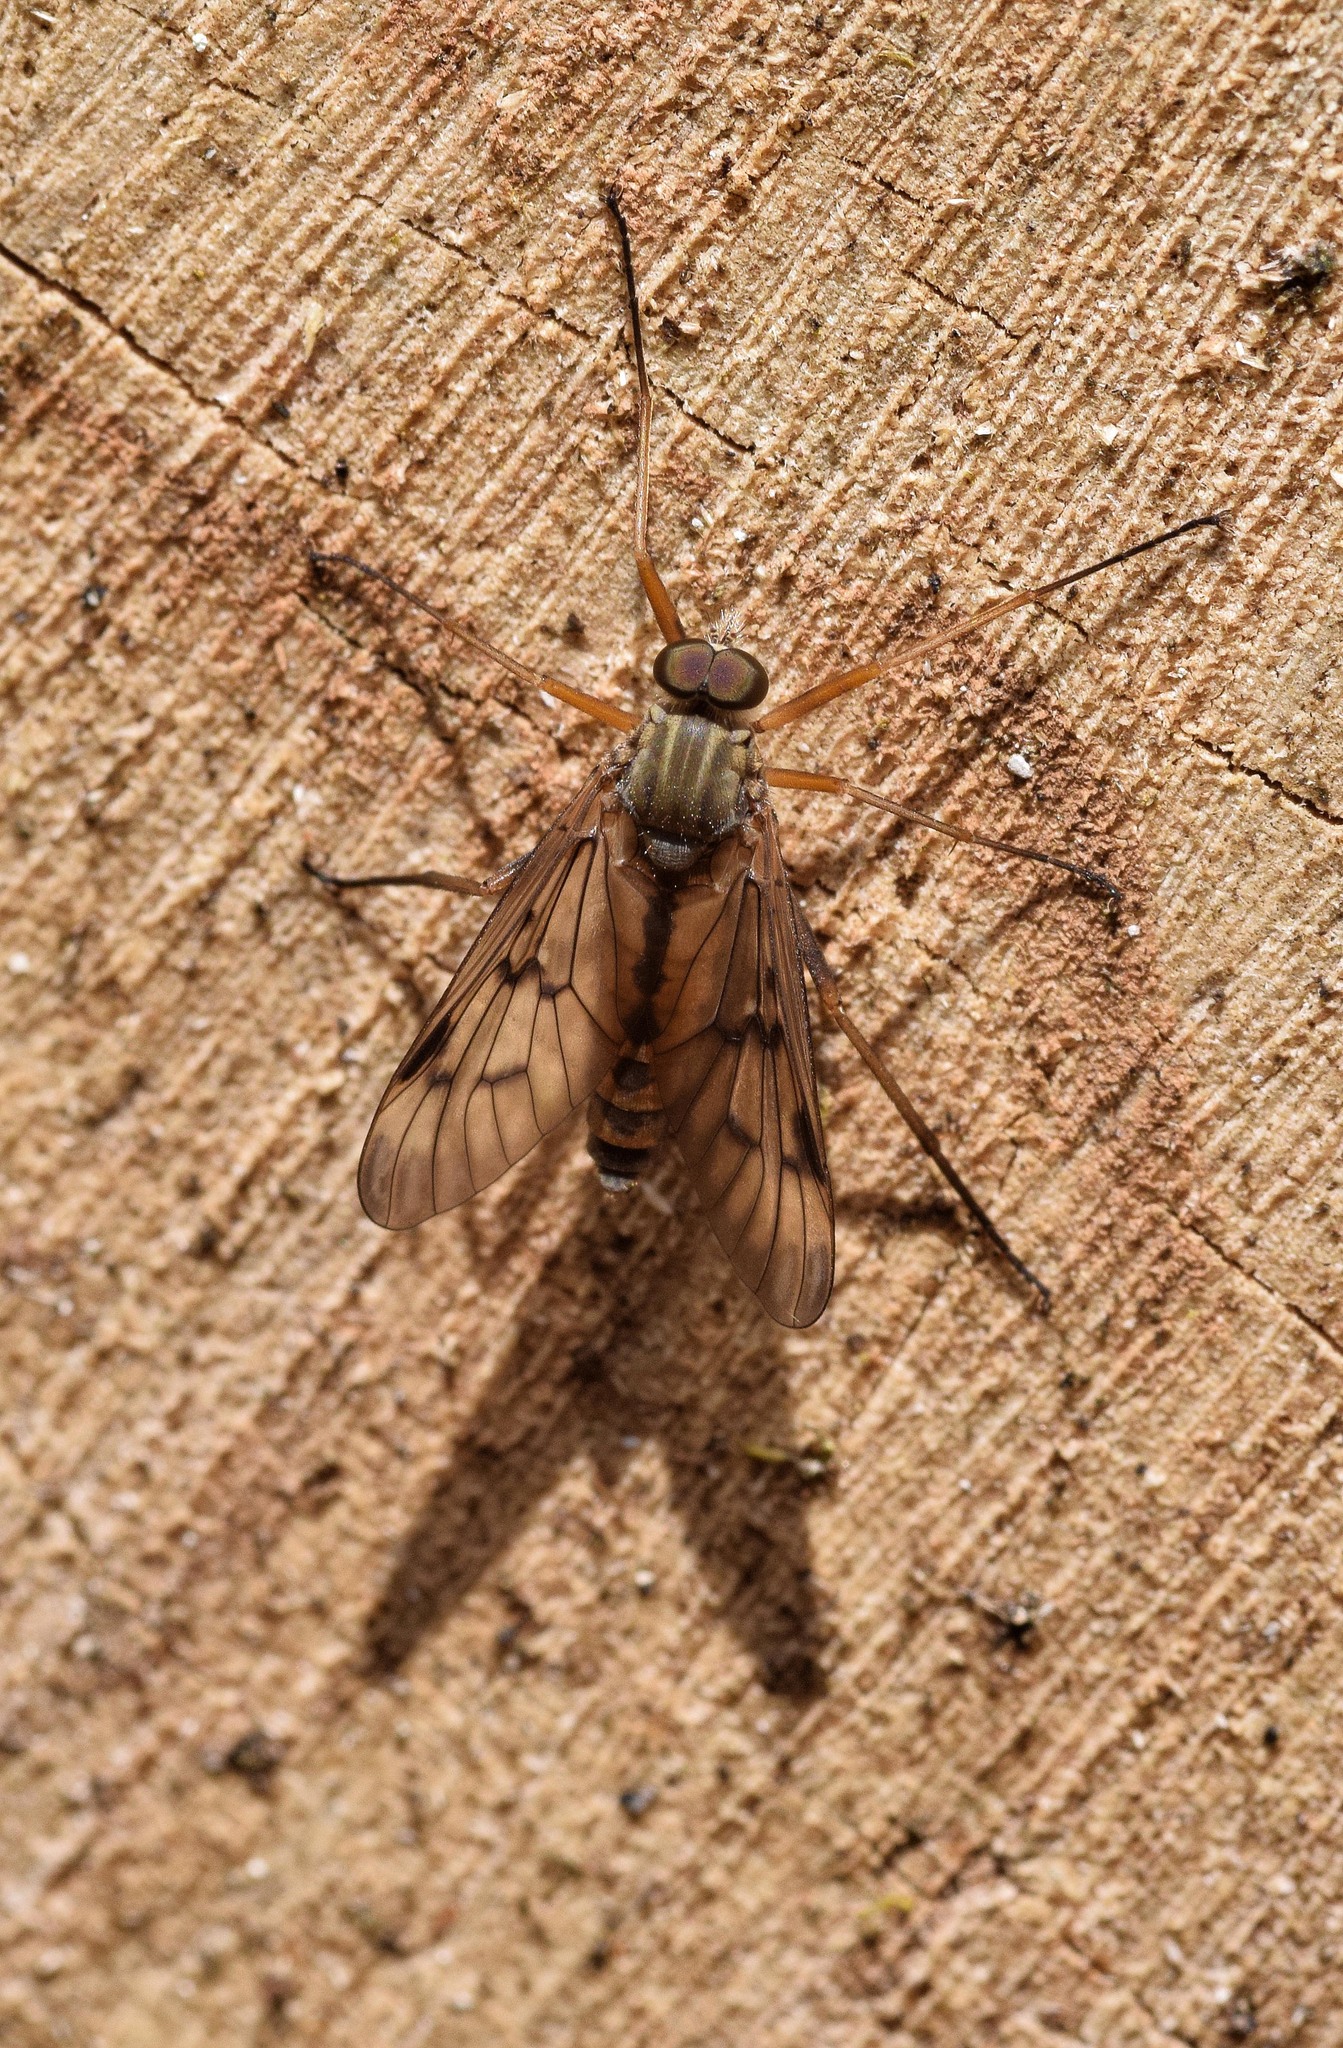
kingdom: Animalia
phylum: Arthropoda
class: Insecta
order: Diptera
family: Rhagionidae
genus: Rhagio
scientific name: Rhagio scolopacea
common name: Downlooker snipefly
